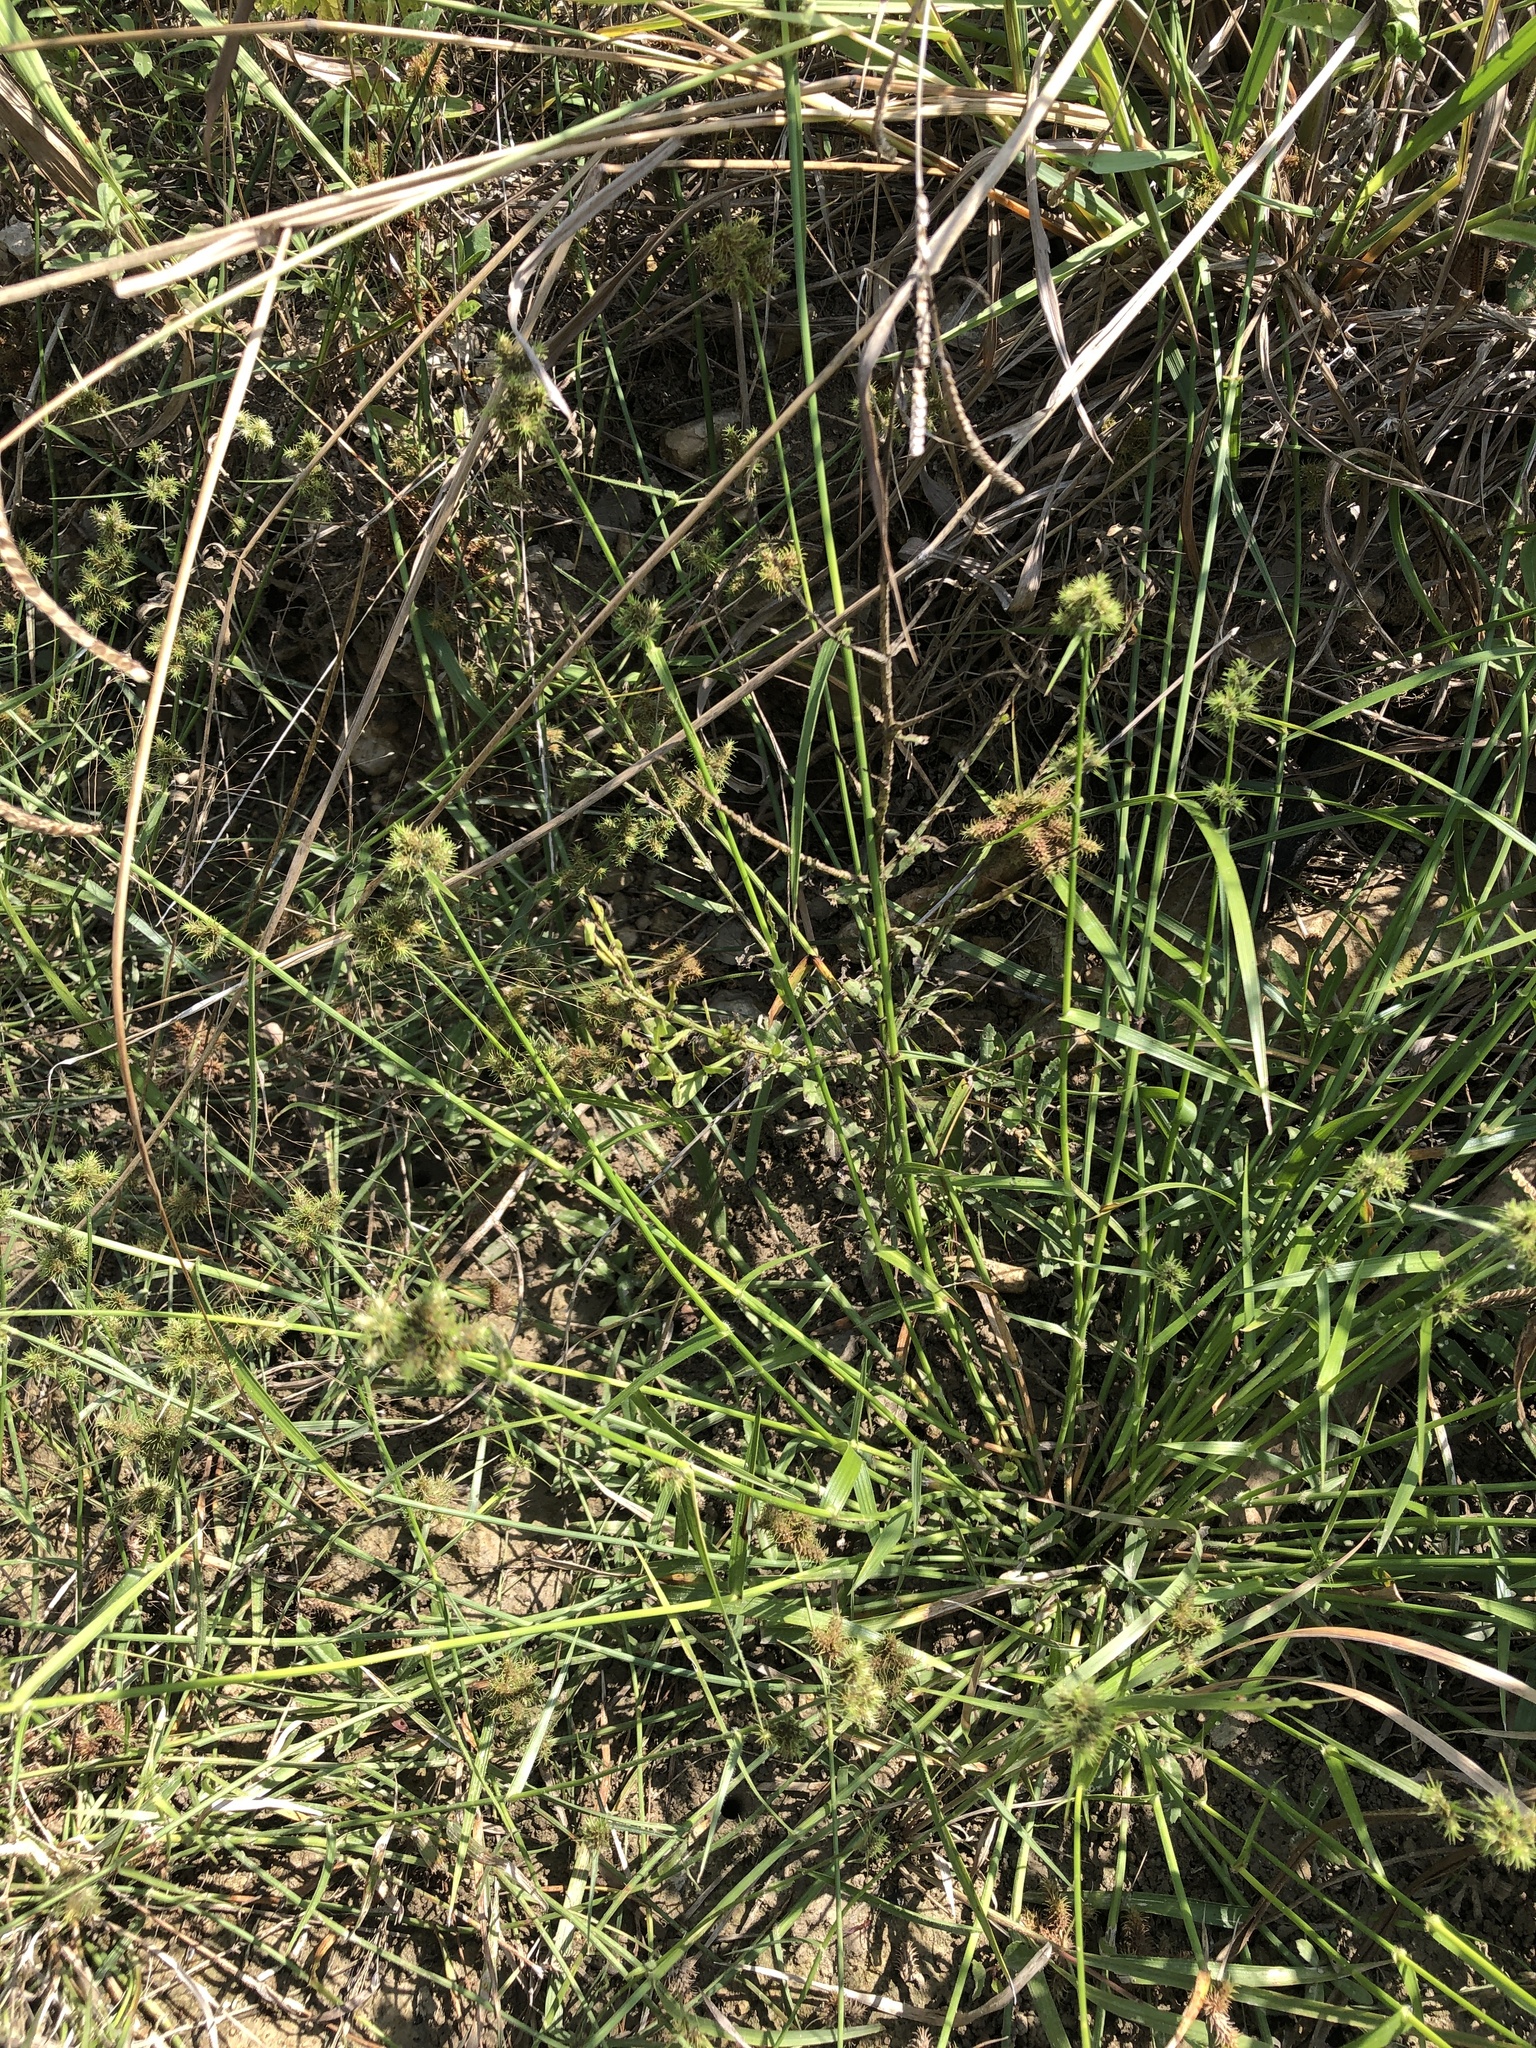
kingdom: Plantae
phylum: Tracheophyta
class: Liliopsida
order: Poales
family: Cyperaceae
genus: Fuirena
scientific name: Fuirena simplex
